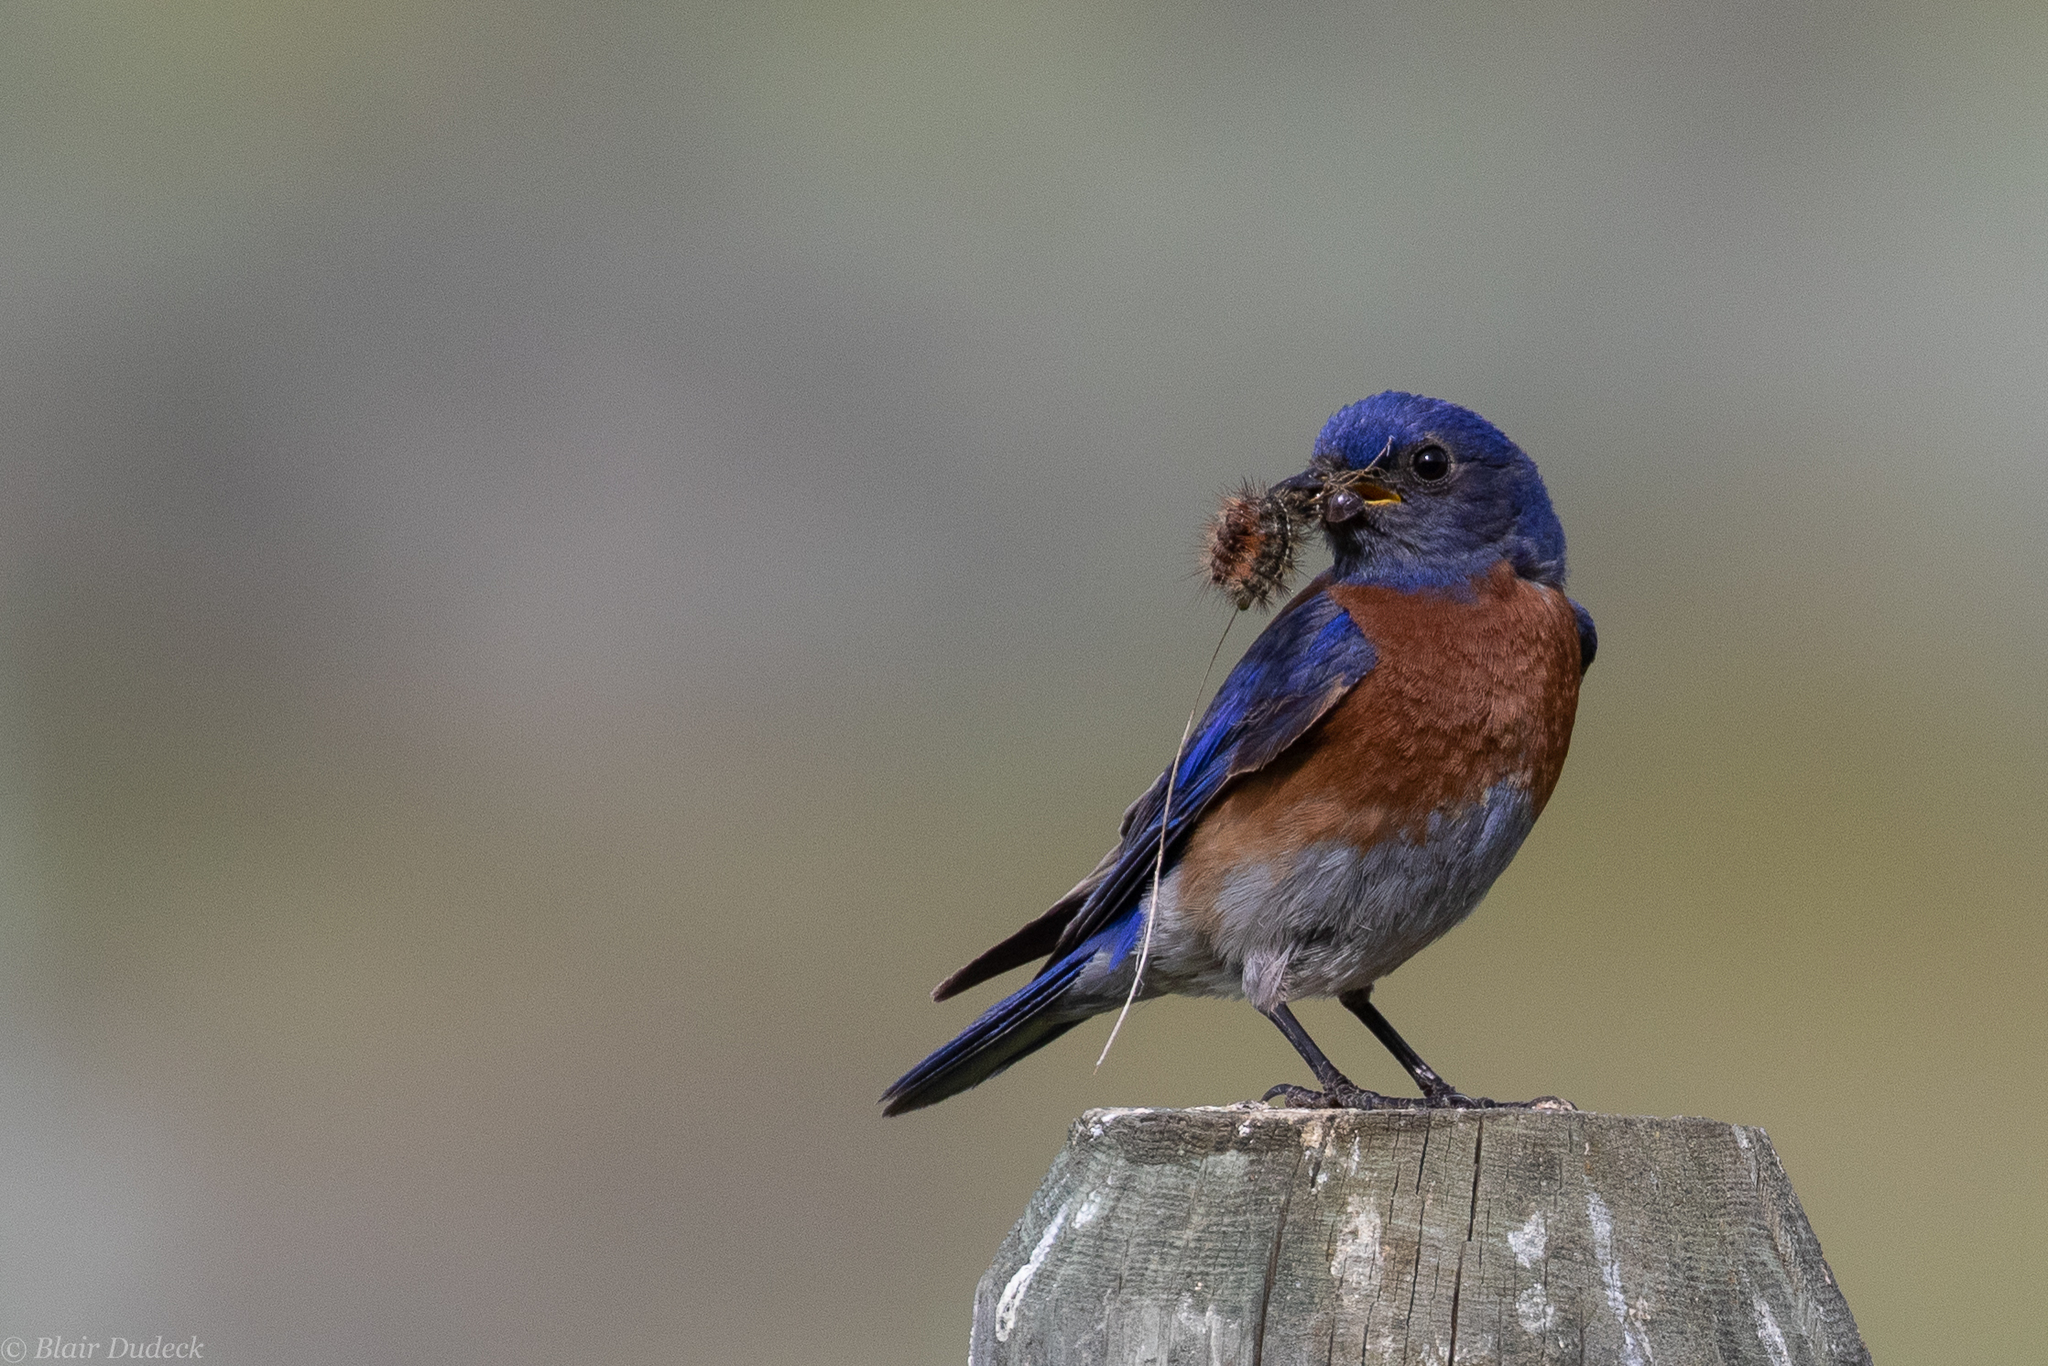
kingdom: Animalia
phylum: Chordata
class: Aves
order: Passeriformes
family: Turdidae
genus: Sialia
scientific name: Sialia mexicana
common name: Western bluebird
